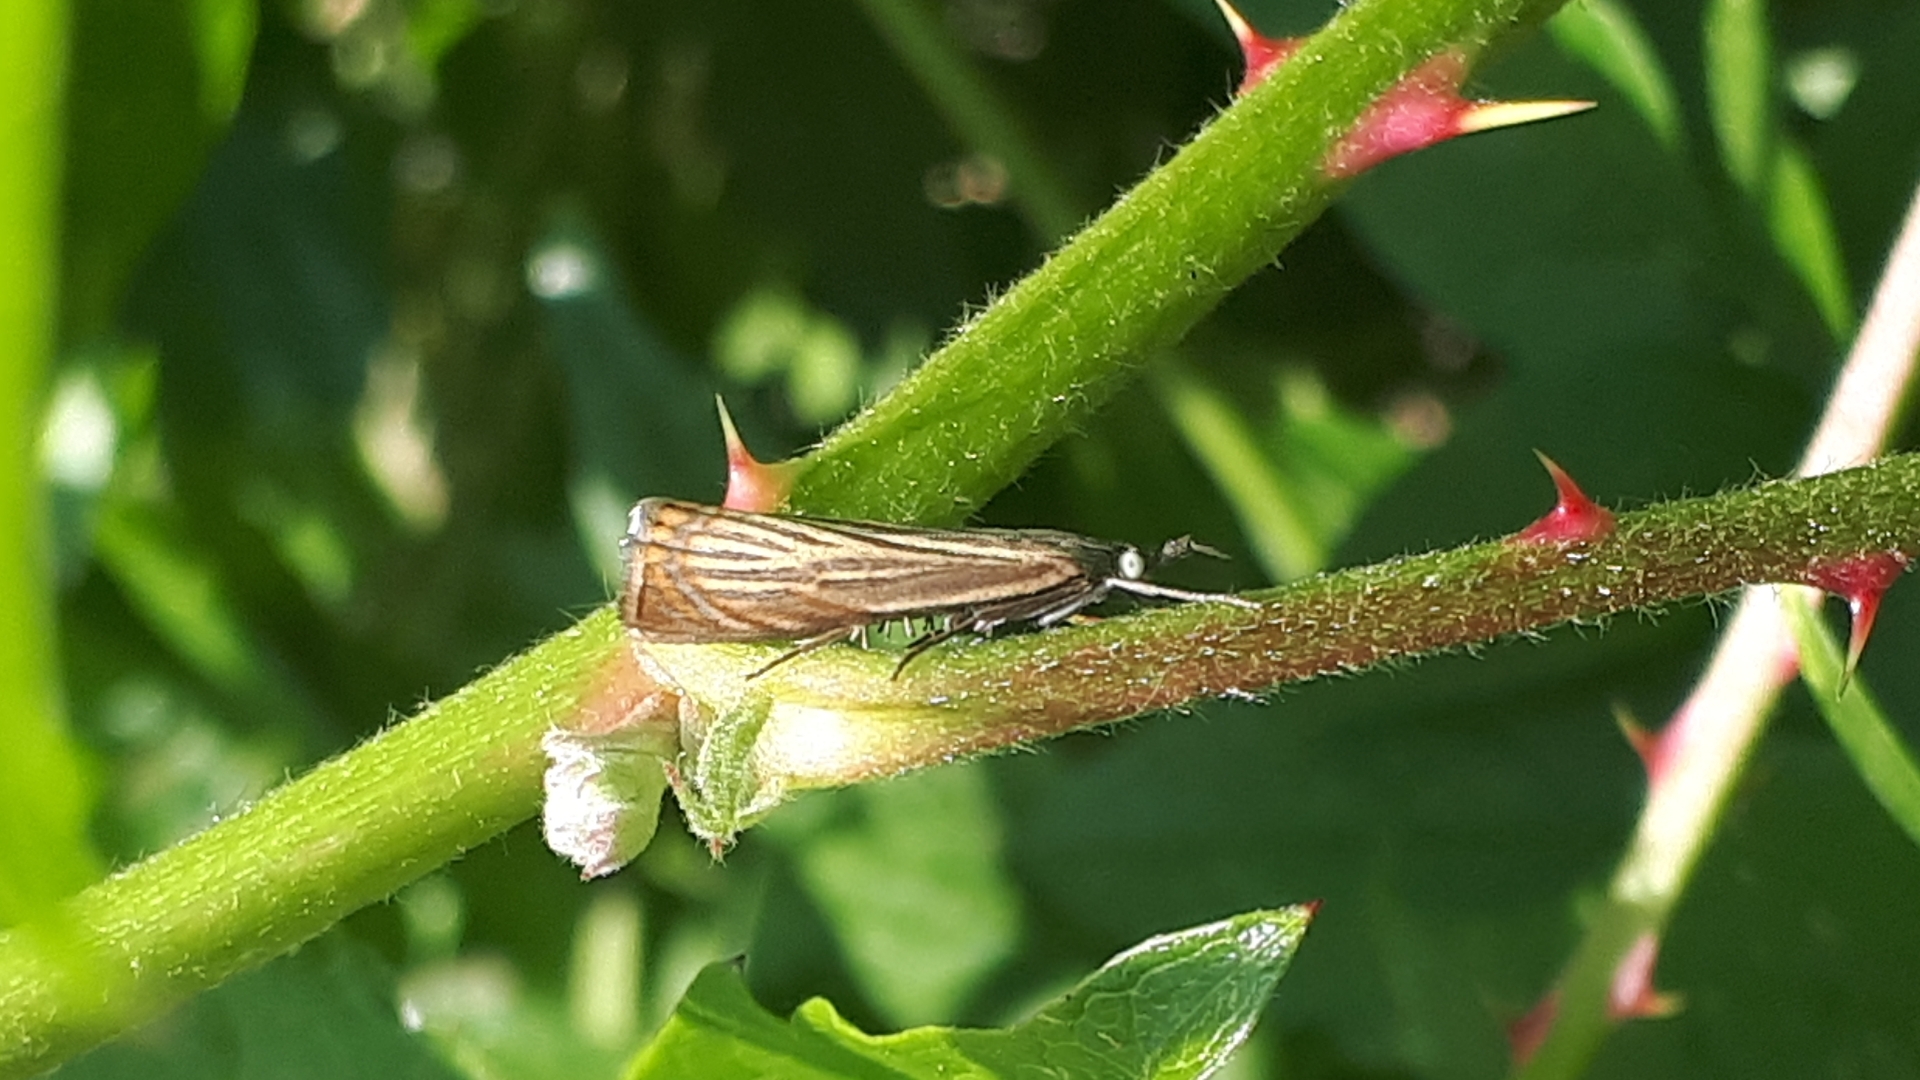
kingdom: Animalia
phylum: Arthropoda
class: Insecta
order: Lepidoptera
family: Crambidae
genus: Chrysoteuchia
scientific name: Chrysoteuchia culmella
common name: Garden grass-veneer
